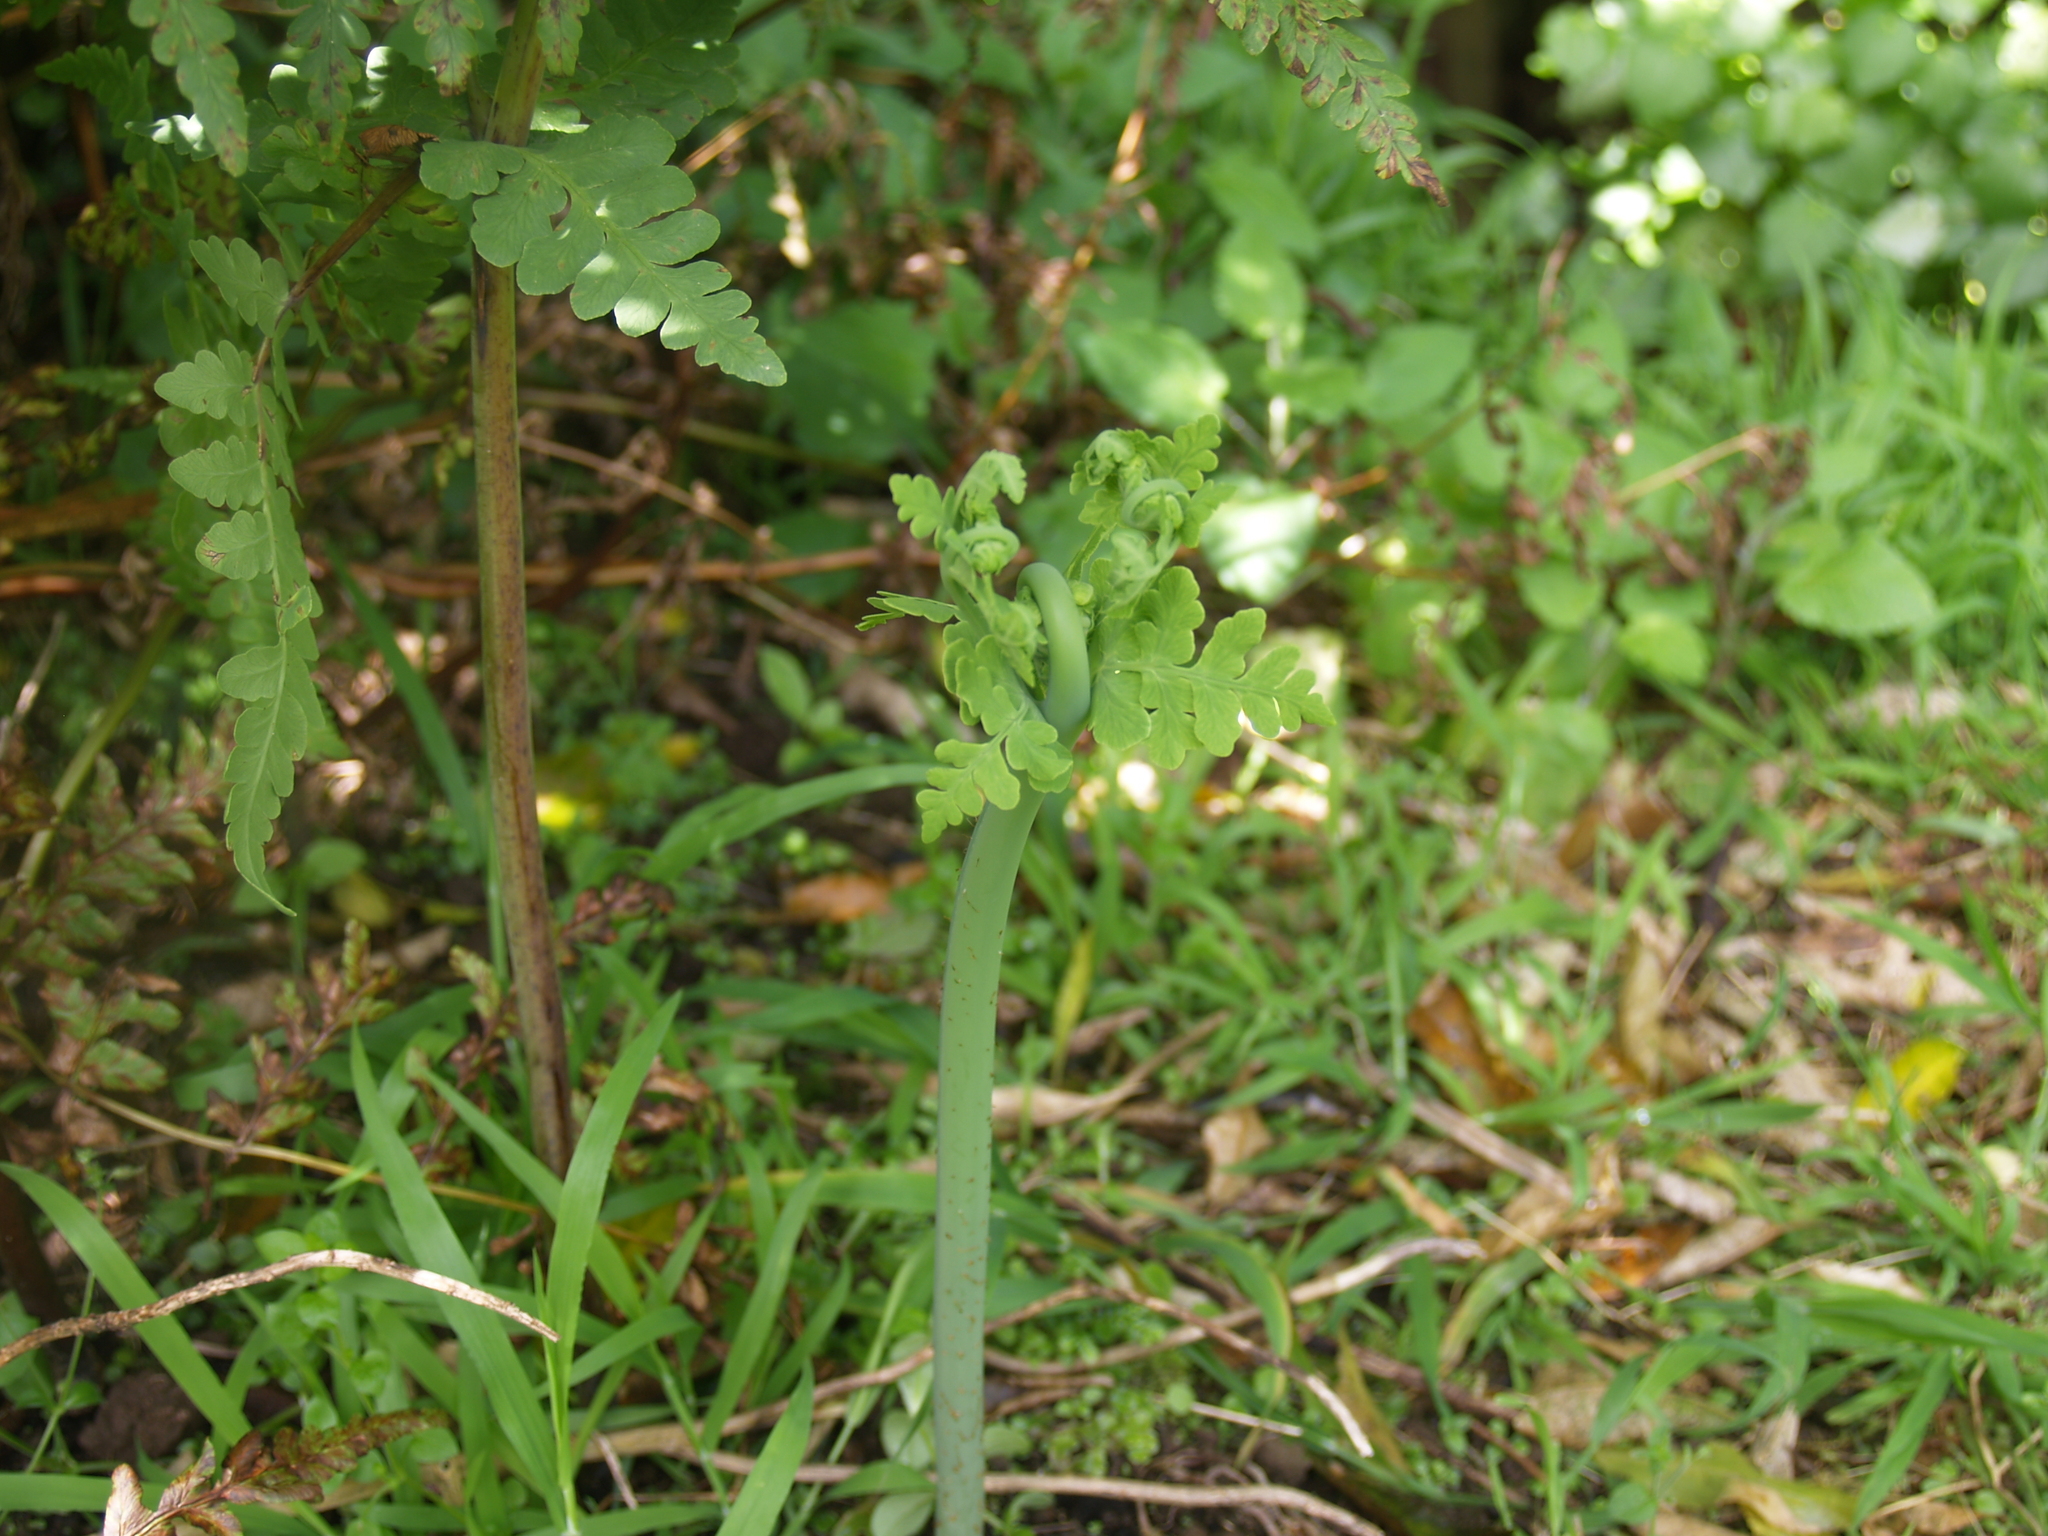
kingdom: Plantae
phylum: Tracheophyta
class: Polypodiopsida
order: Polypodiales
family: Dennstaedtiaceae
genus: Histiopteris
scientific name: Histiopteris incisa
